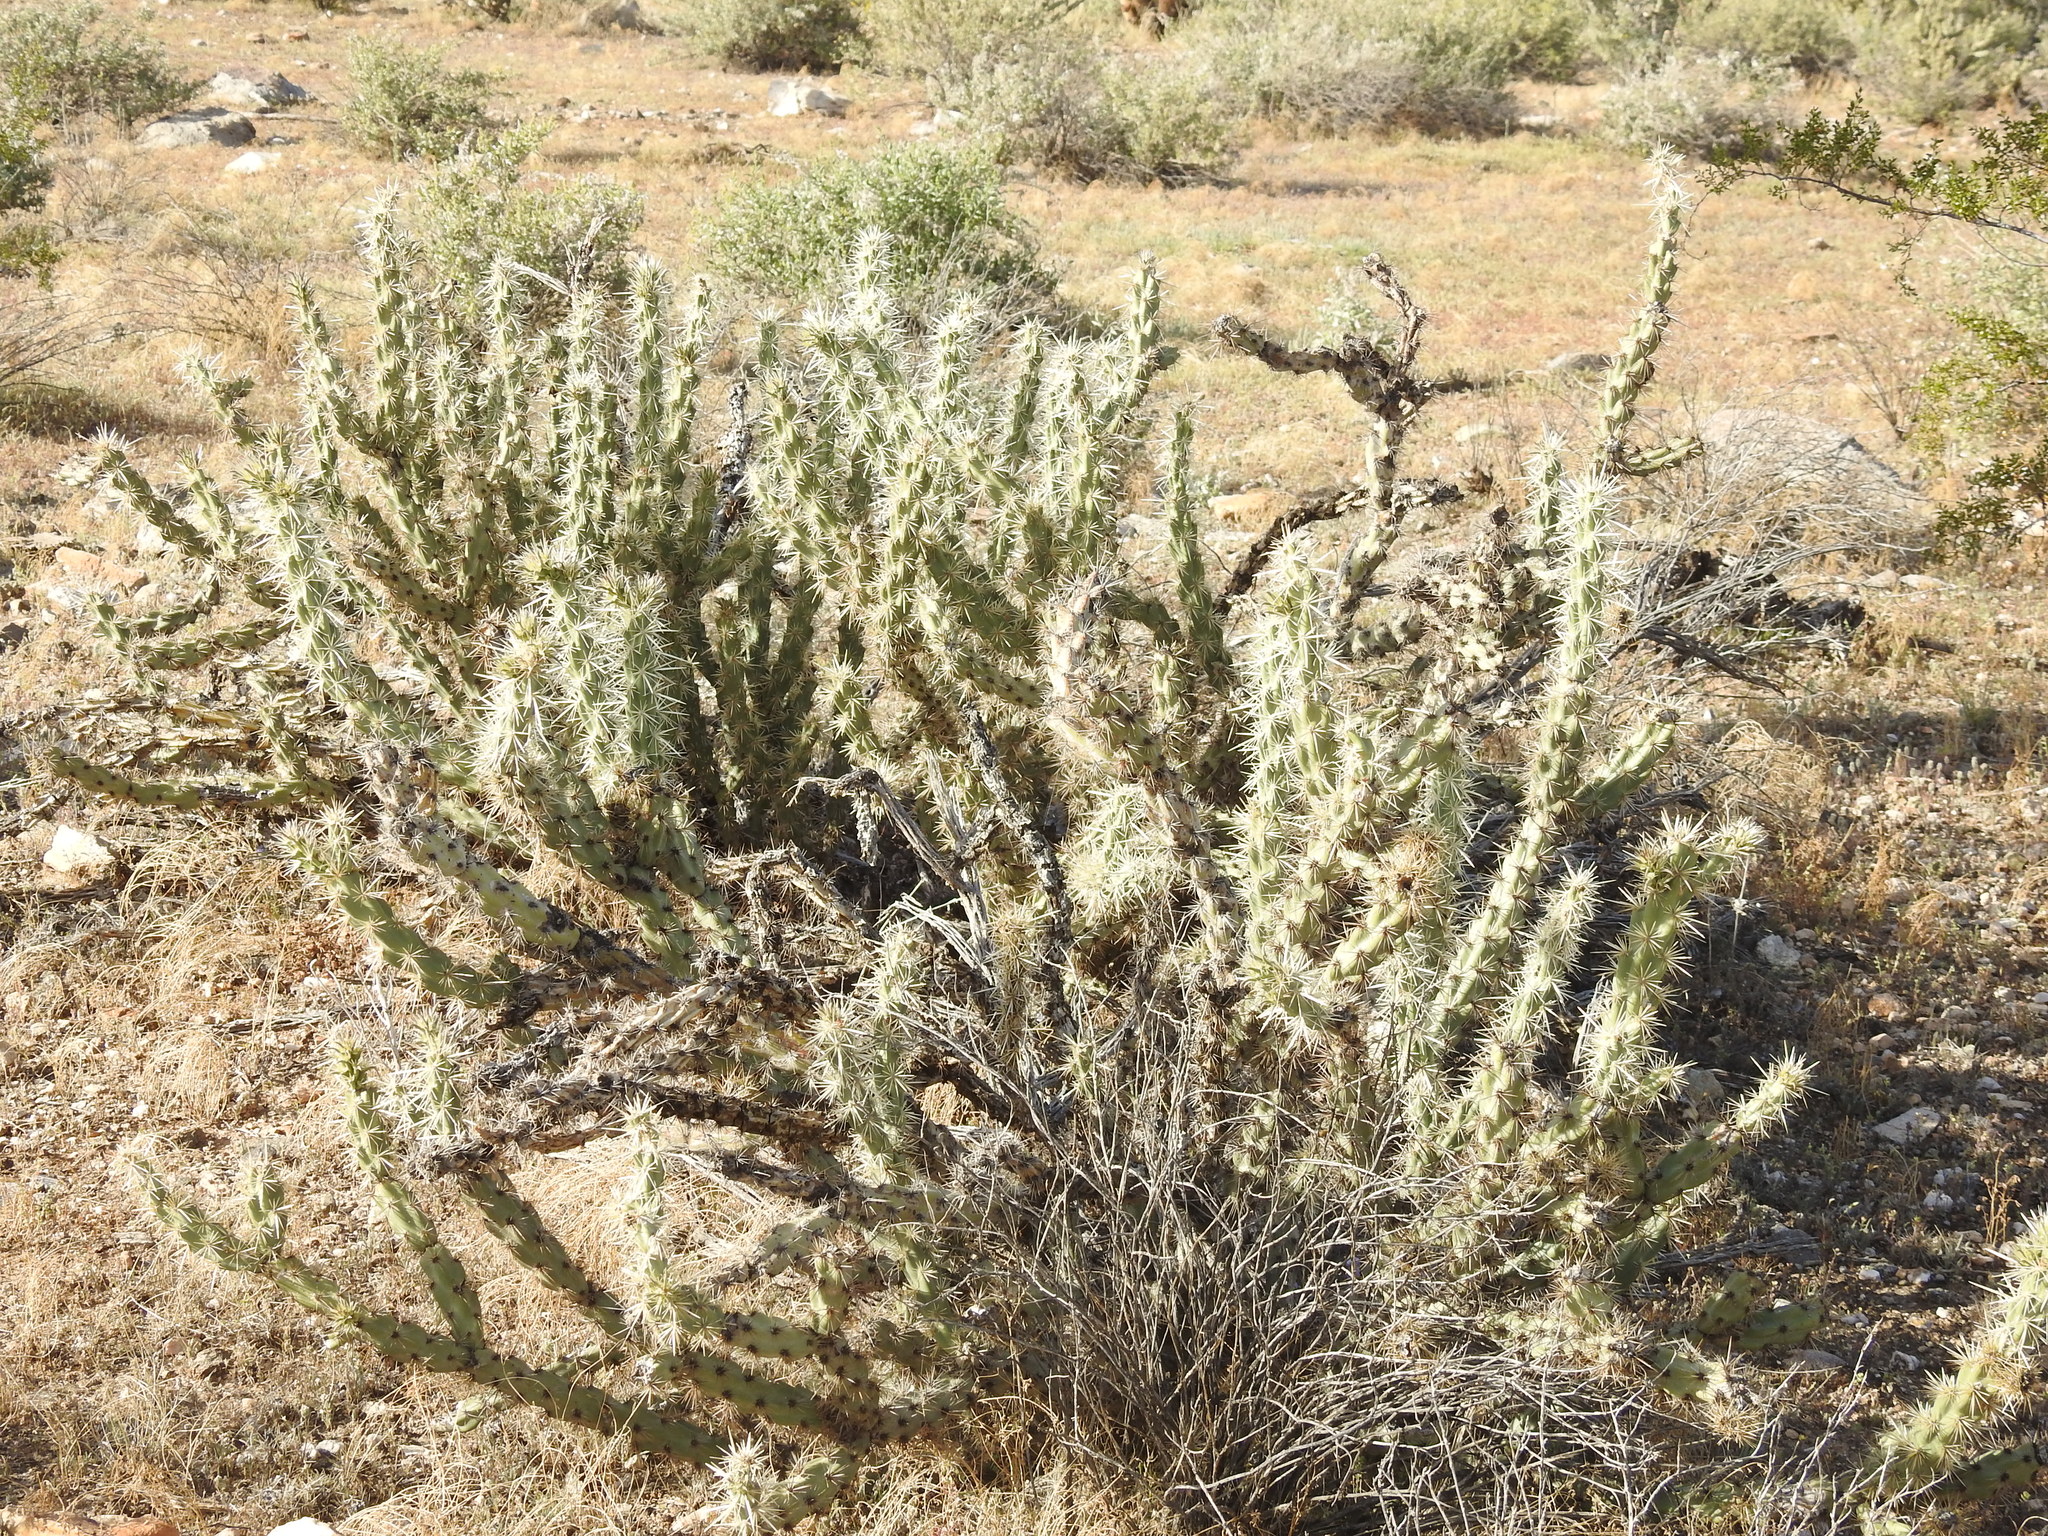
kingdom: Plantae
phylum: Tracheophyta
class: Magnoliopsida
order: Caryophyllales
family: Cactaceae
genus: Cylindropuntia
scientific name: Cylindropuntia acanthocarpa
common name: Buckhorn cholla
